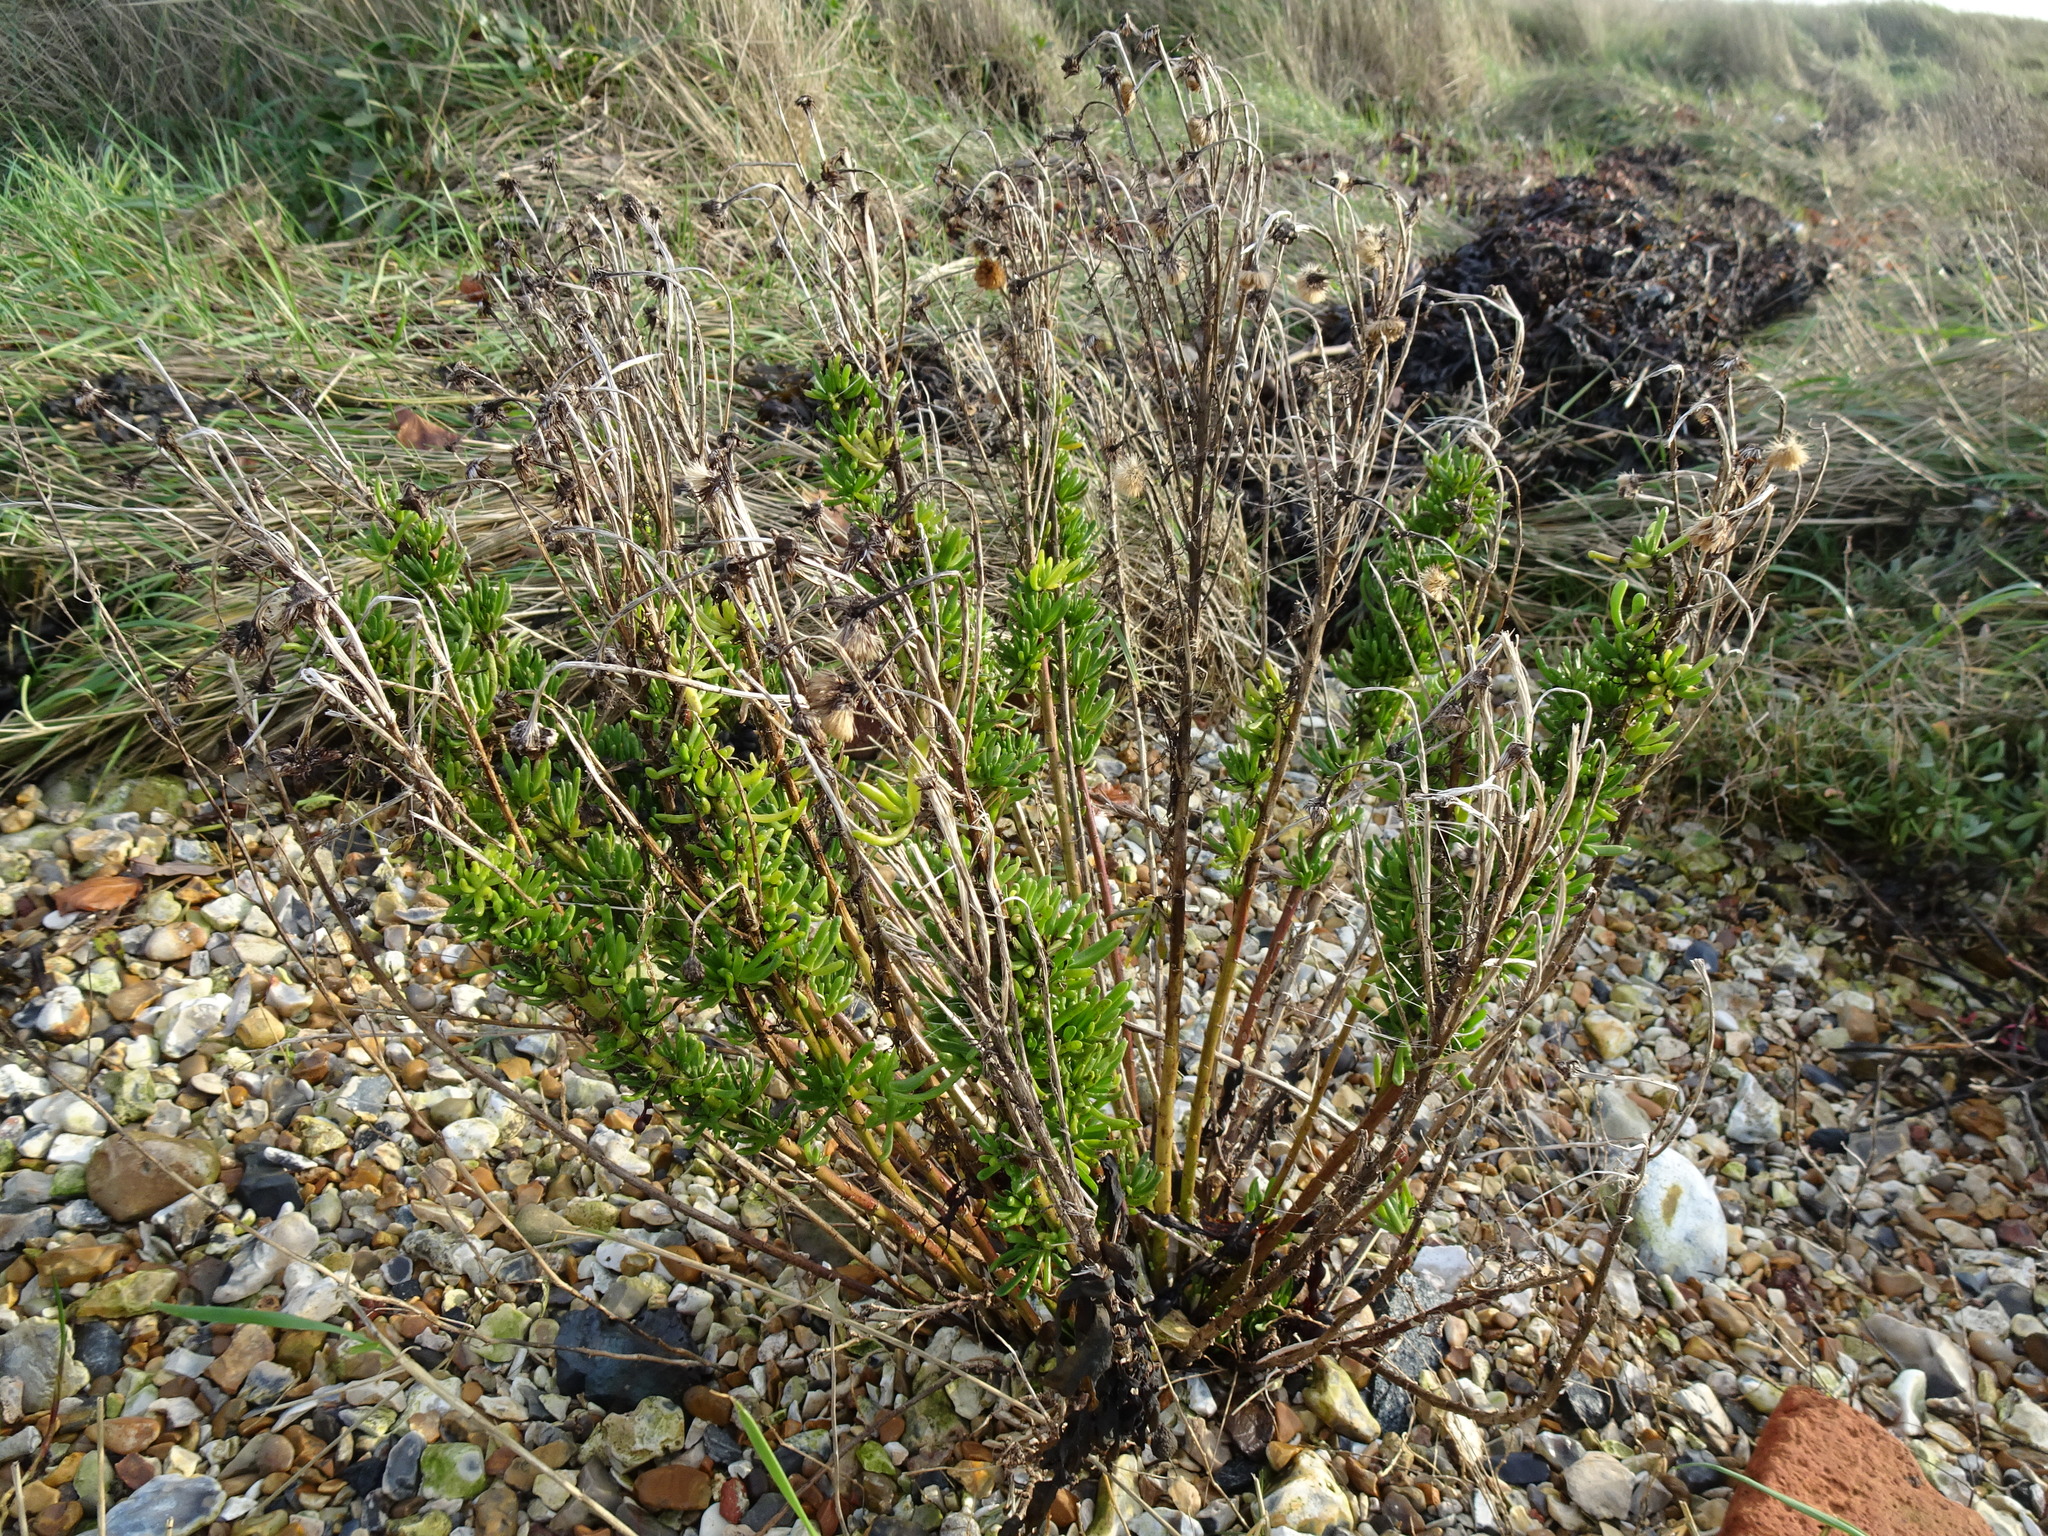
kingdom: Plantae
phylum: Tracheophyta
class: Magnoliopsida
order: Asterales
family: Asteraceae
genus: Limbarda
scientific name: Limbarda crithmoides
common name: Golden samphire
